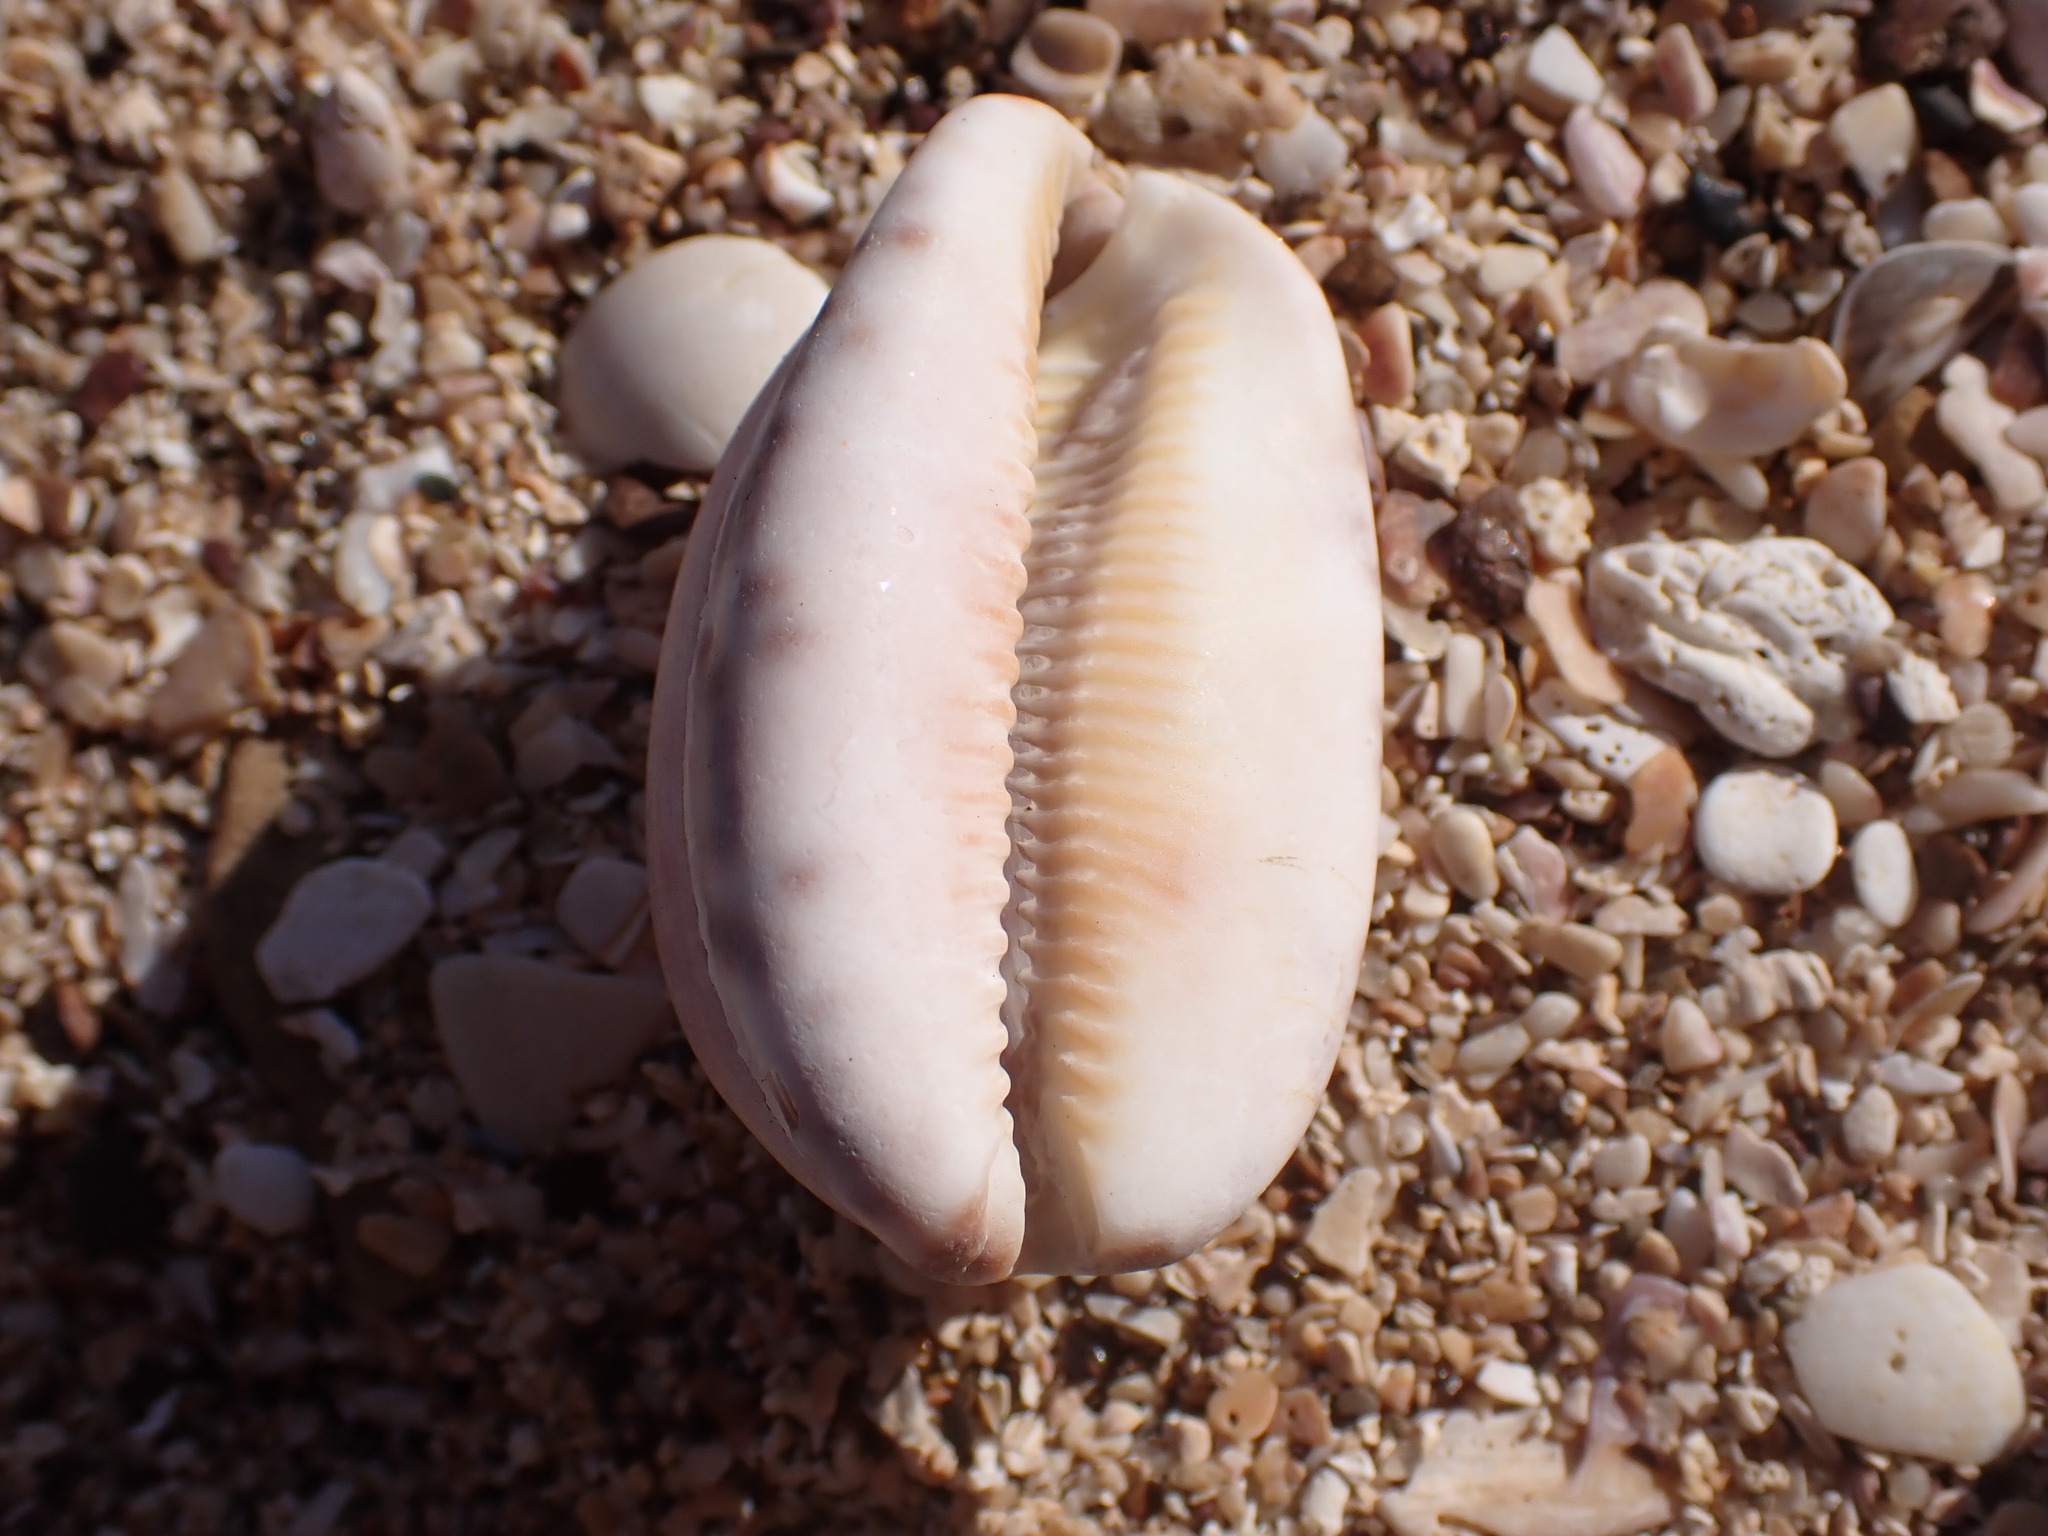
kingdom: Animalia
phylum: Mollusca
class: Gastropoda
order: Littorinimorpha
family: Cypraeidae
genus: Mauritia
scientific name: Mauritia arabica
